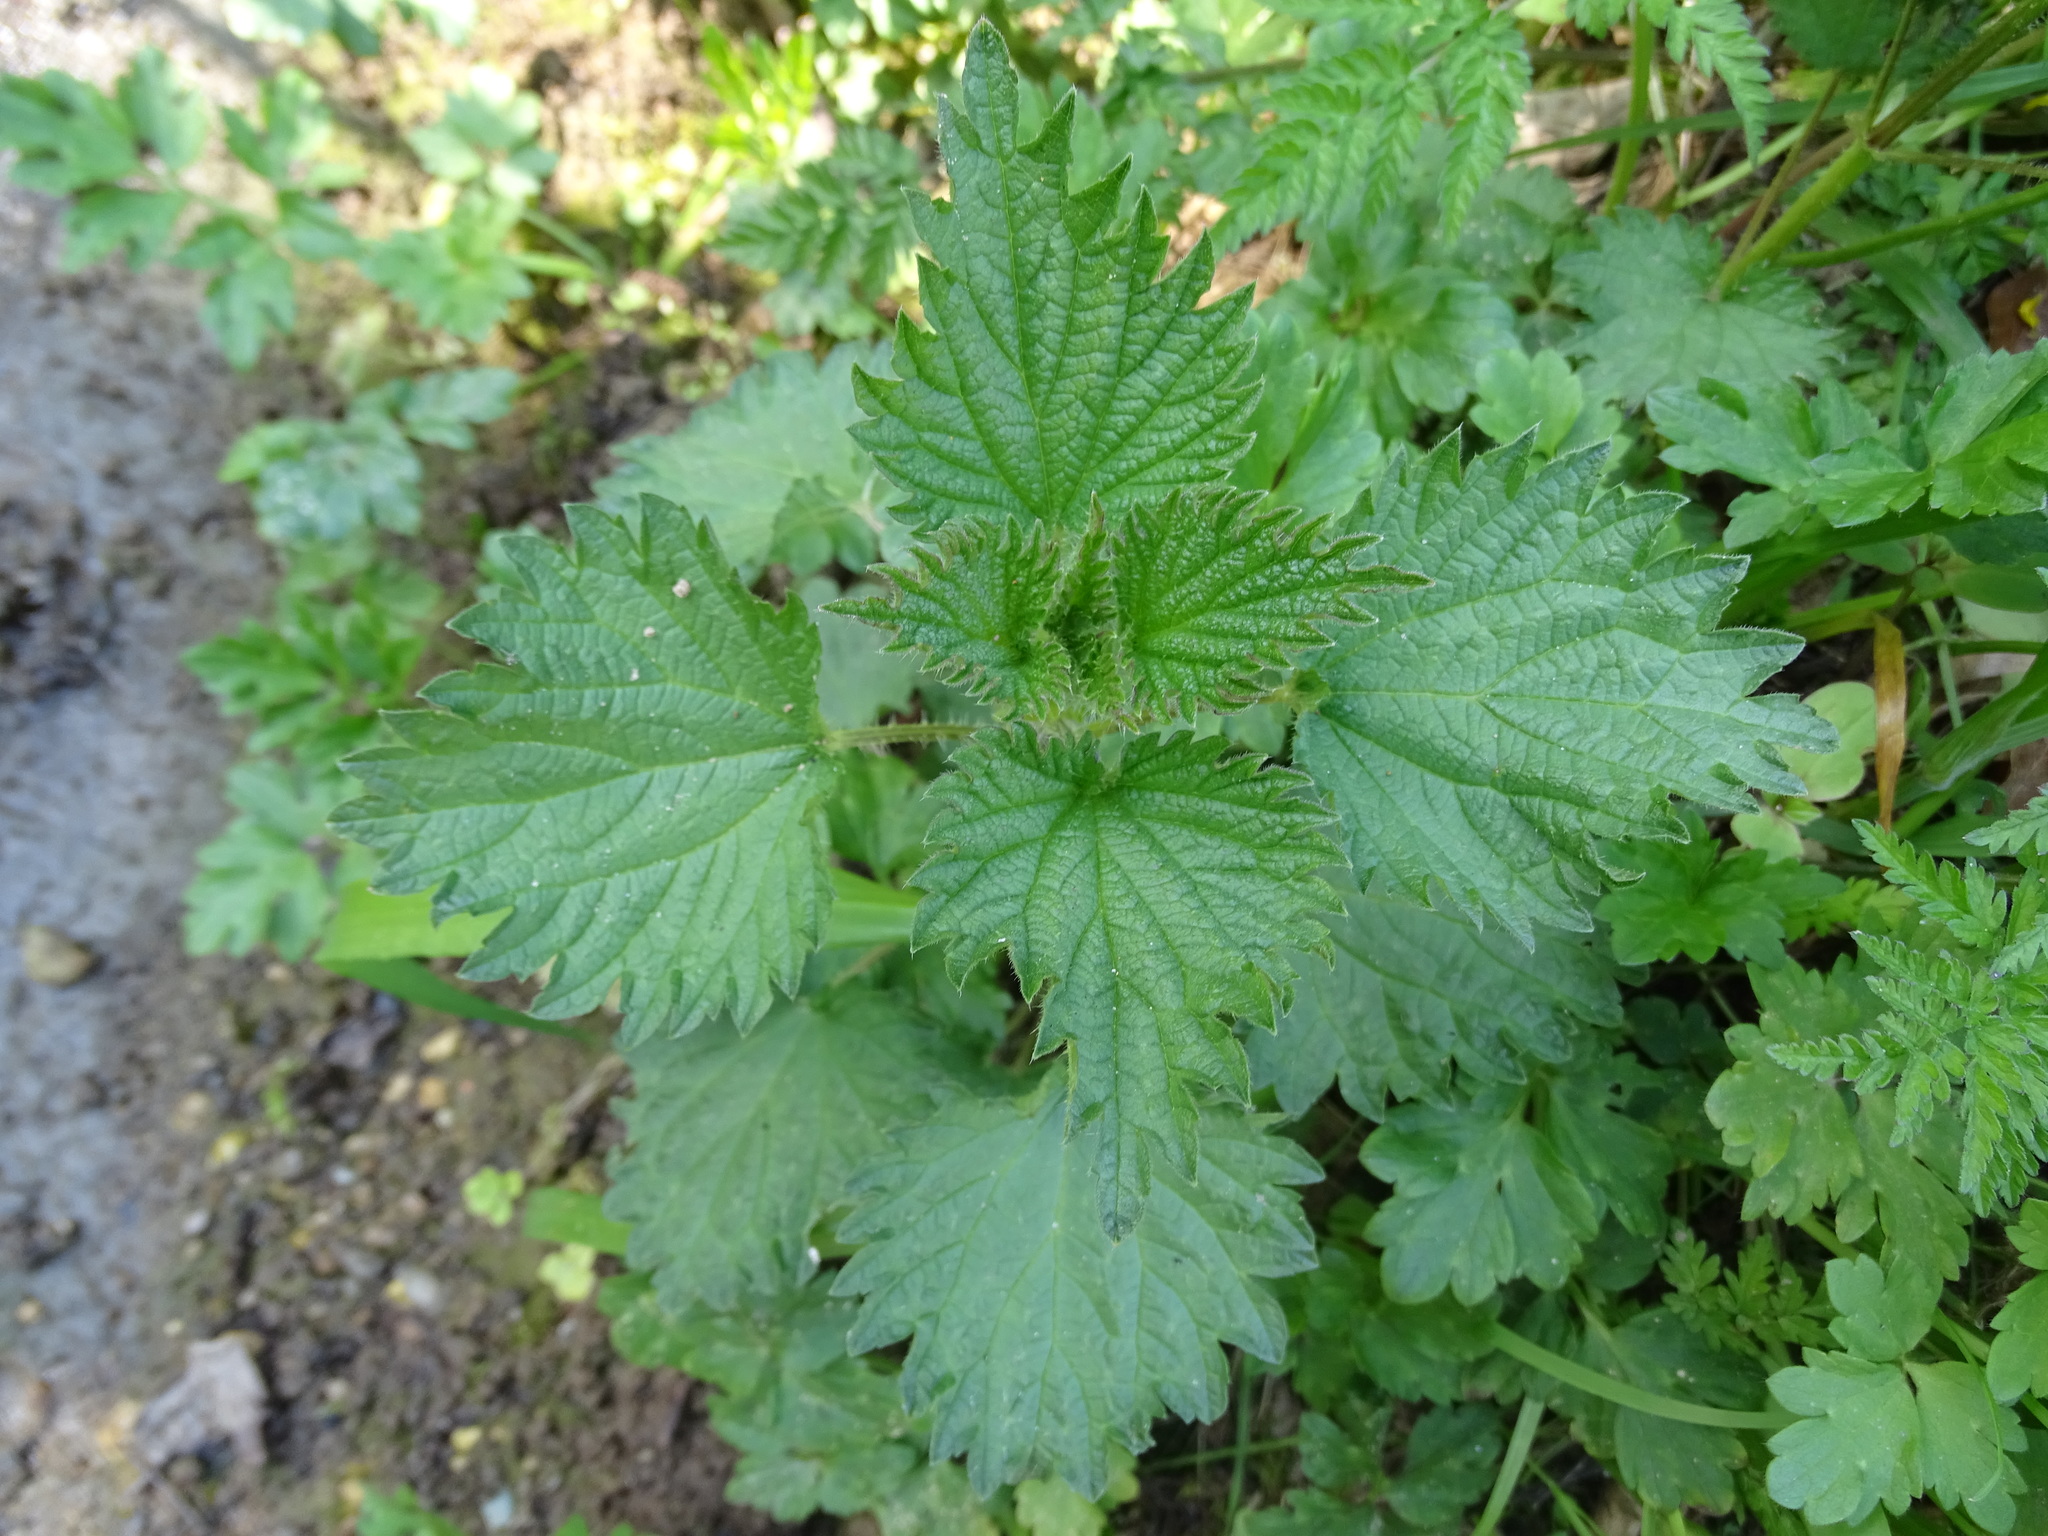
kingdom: Plantae
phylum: Tracheophyta
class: Magnoliopsida
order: Rosales
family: Urticaceae
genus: Urtica
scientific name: Urtica dioica
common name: Common nettle
